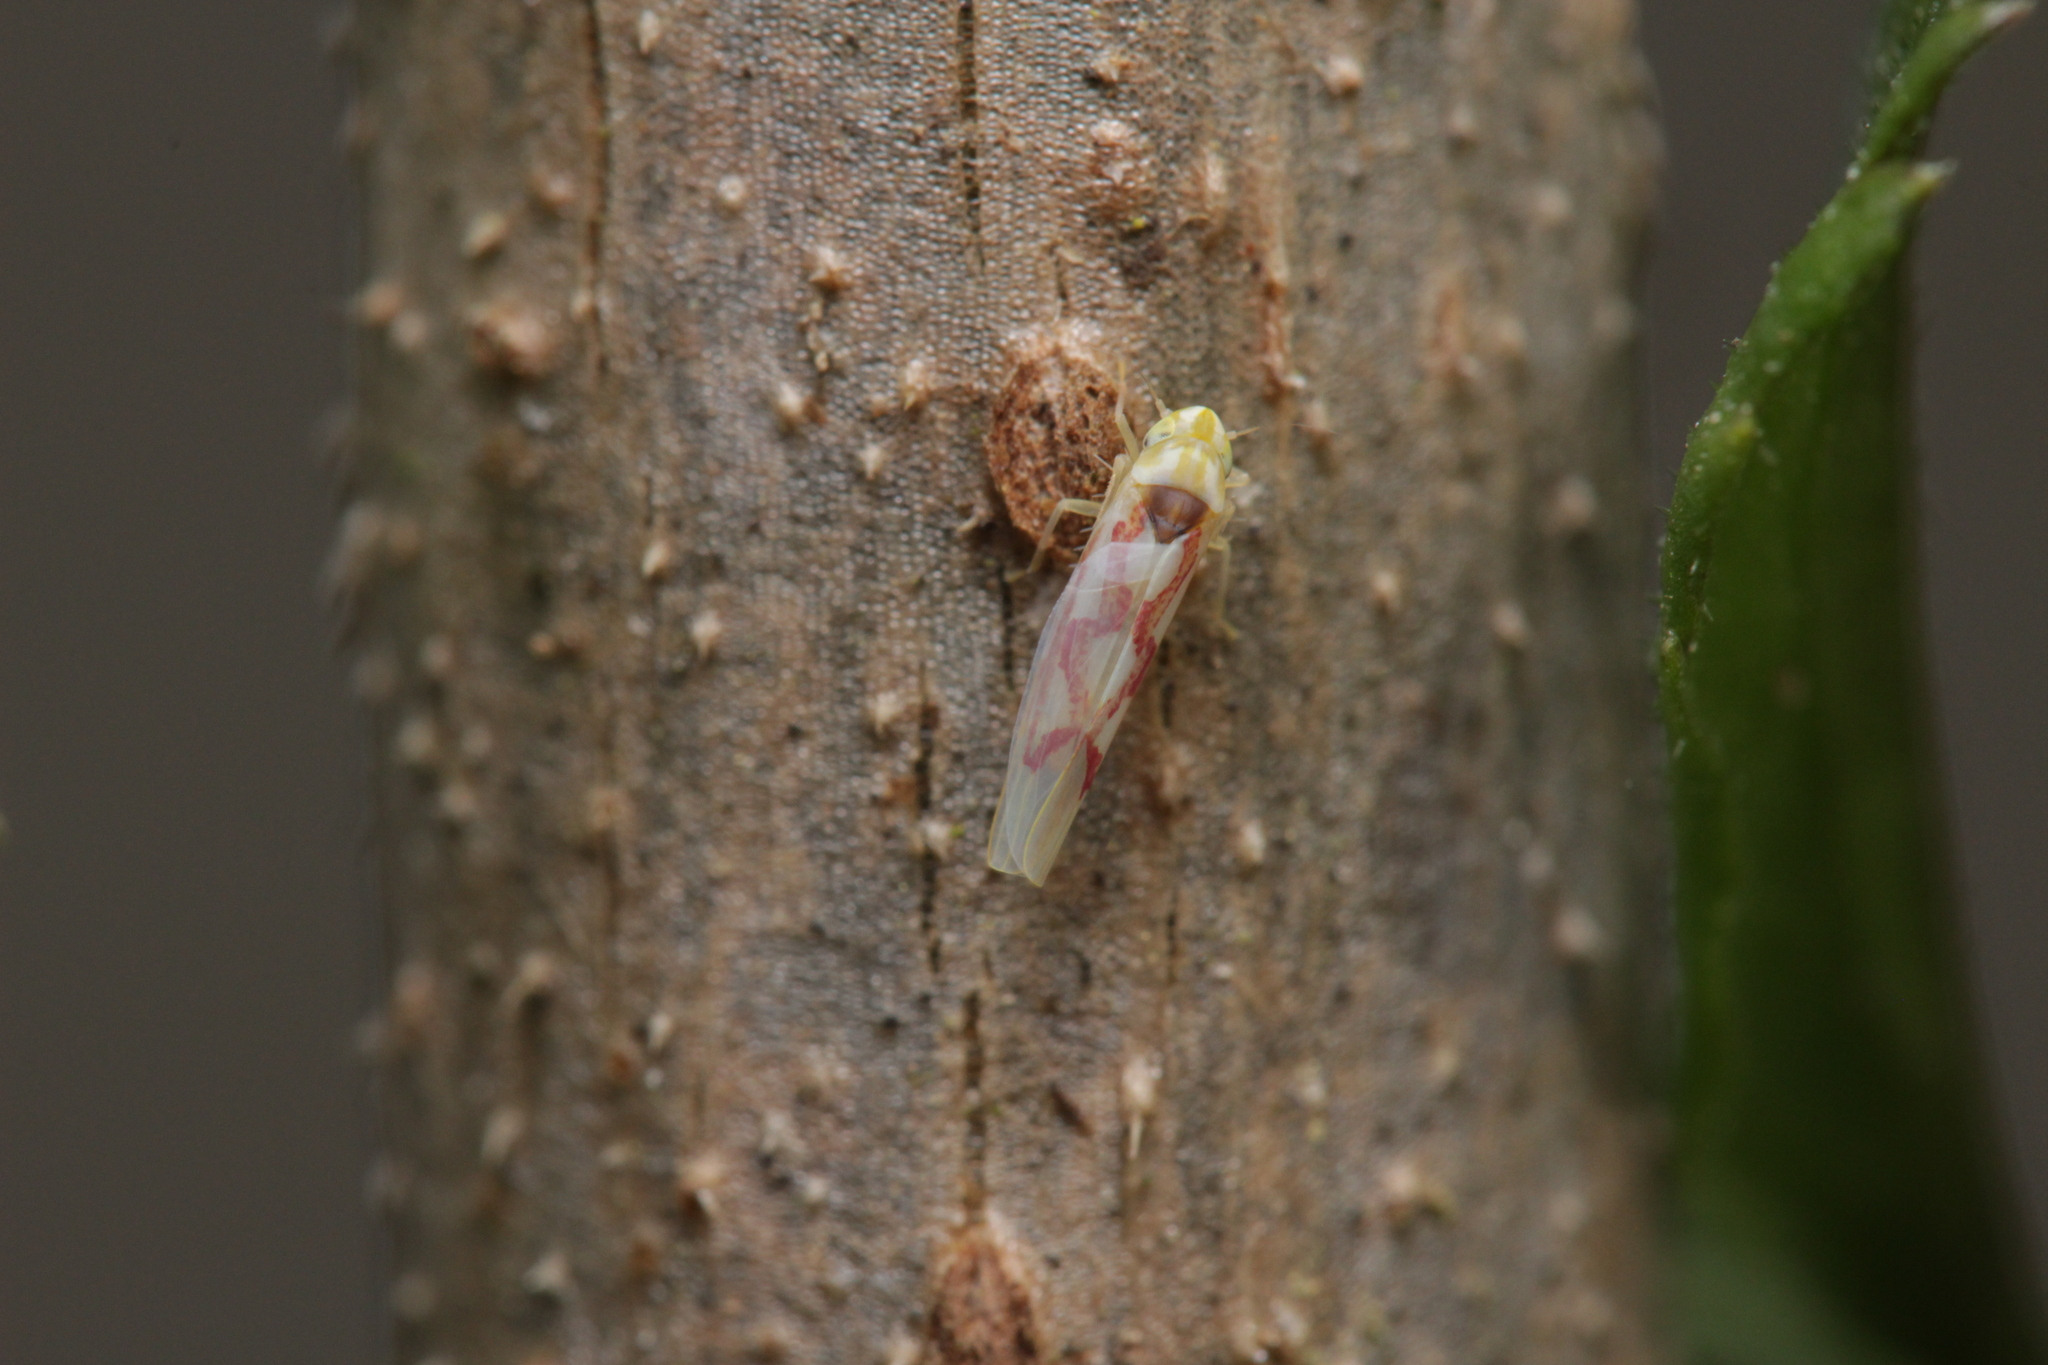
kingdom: Animalia
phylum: Arthropoda
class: Insecta
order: Hemiptera
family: Cicadellidae
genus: Zygina
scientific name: Zygina flammigera
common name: Leafhopper
